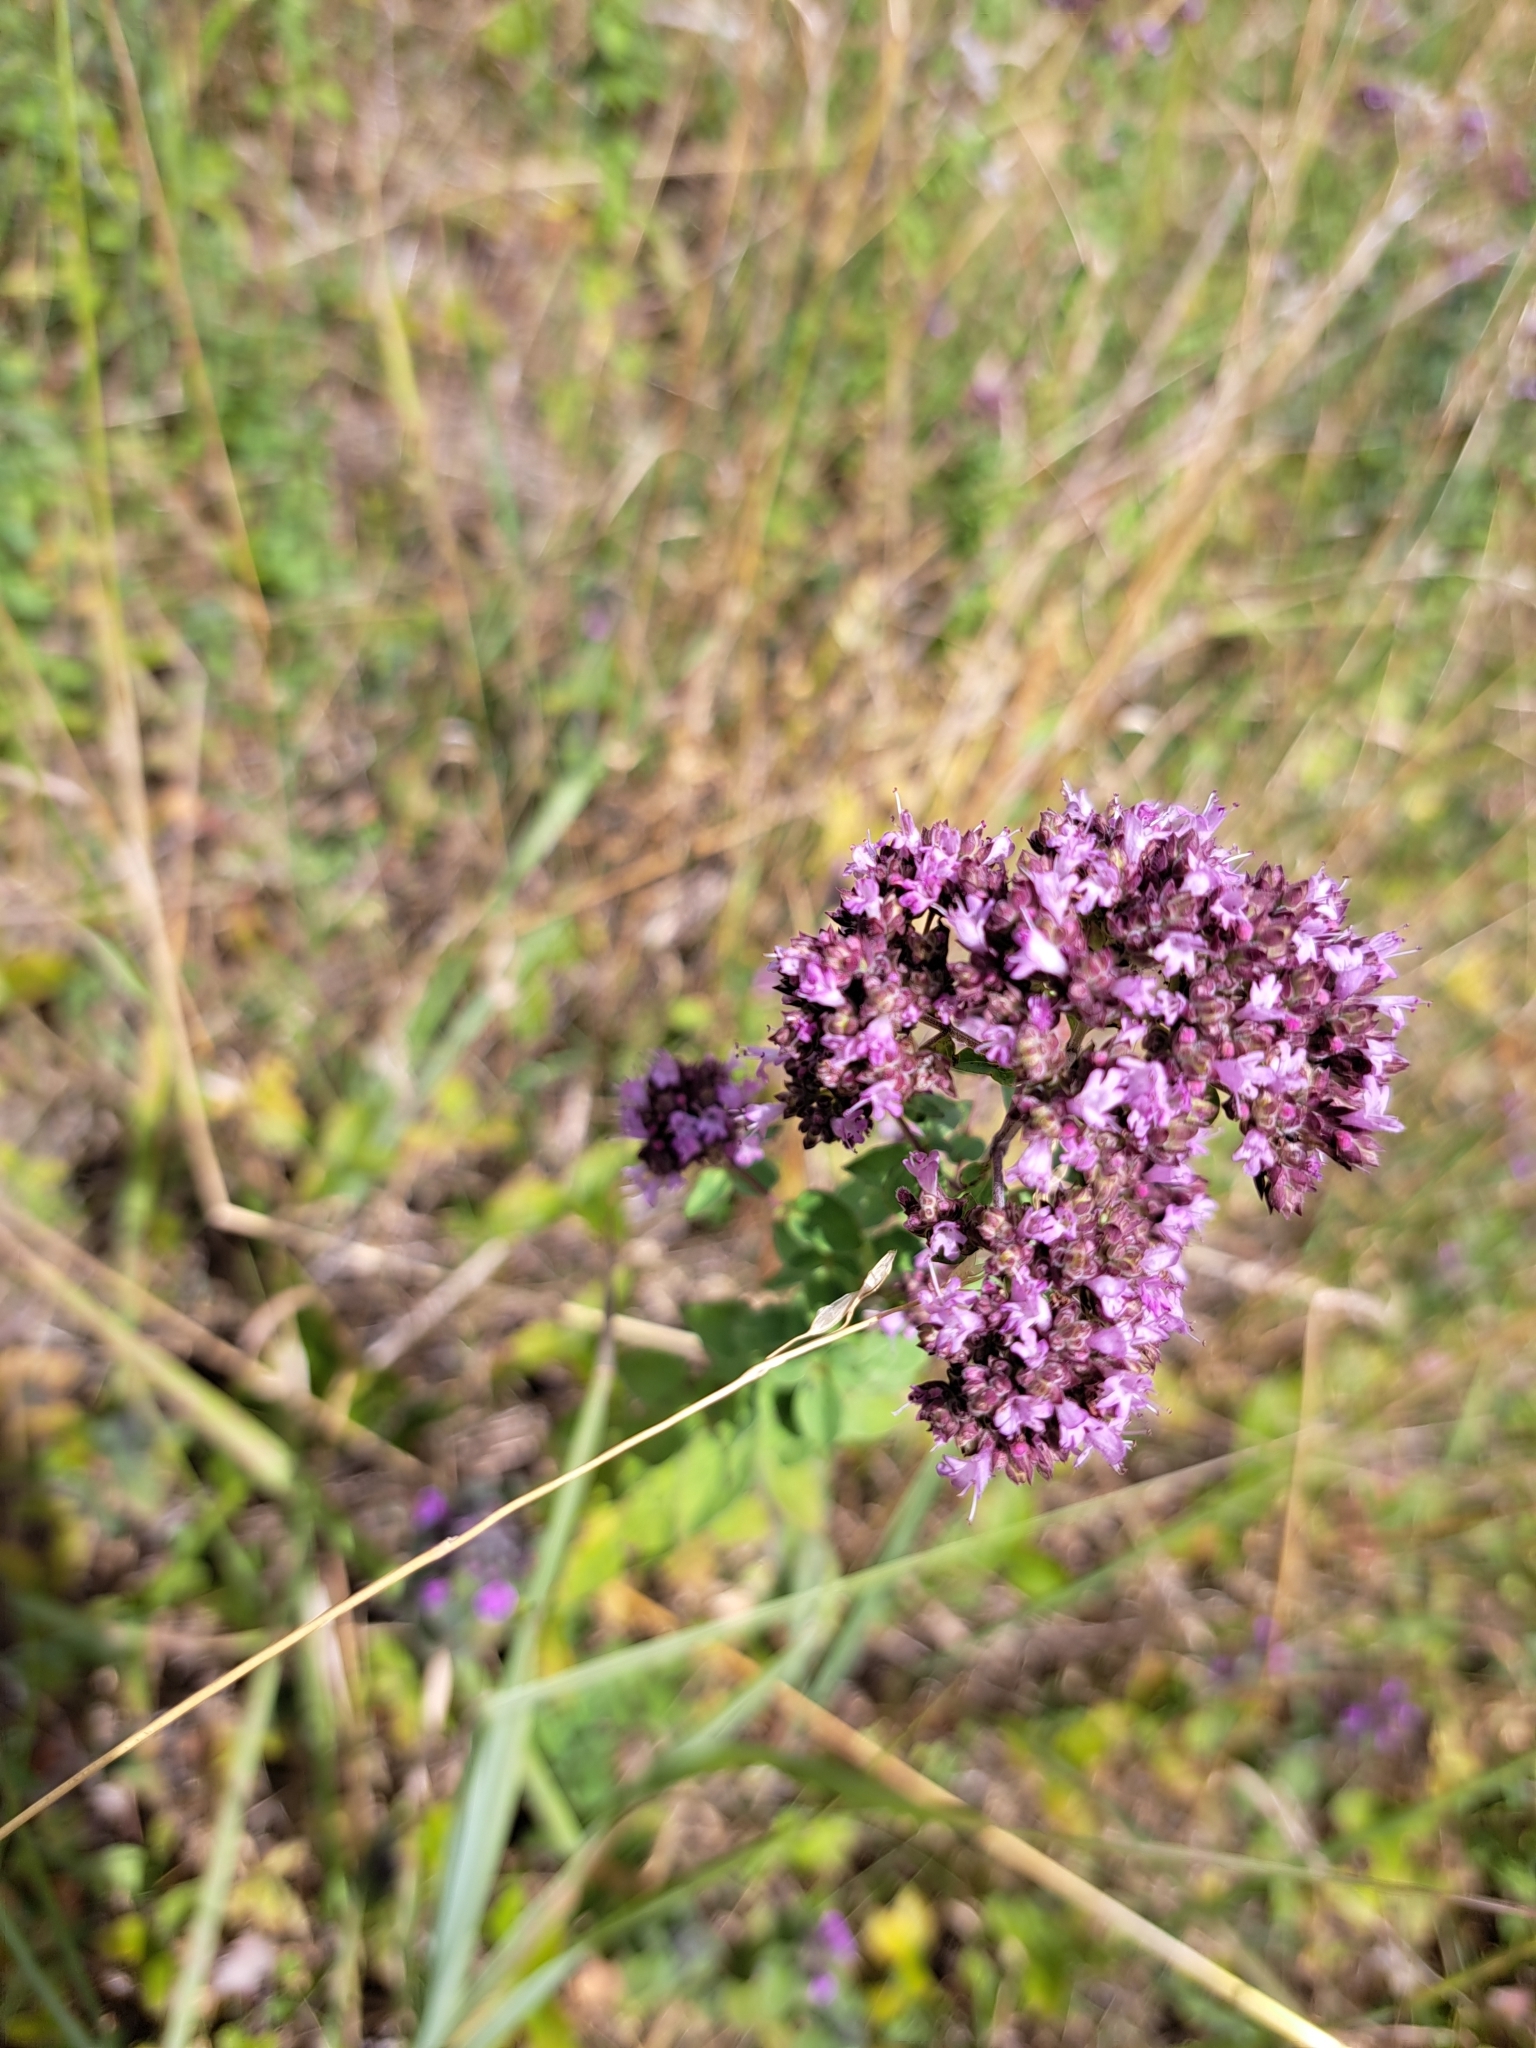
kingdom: Plantae
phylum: Tracheophyta
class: Magnoliopsida
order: Lamiales
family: Lamiaceae
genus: Origanum
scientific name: Origanum vulgare
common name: Wild marjoram
